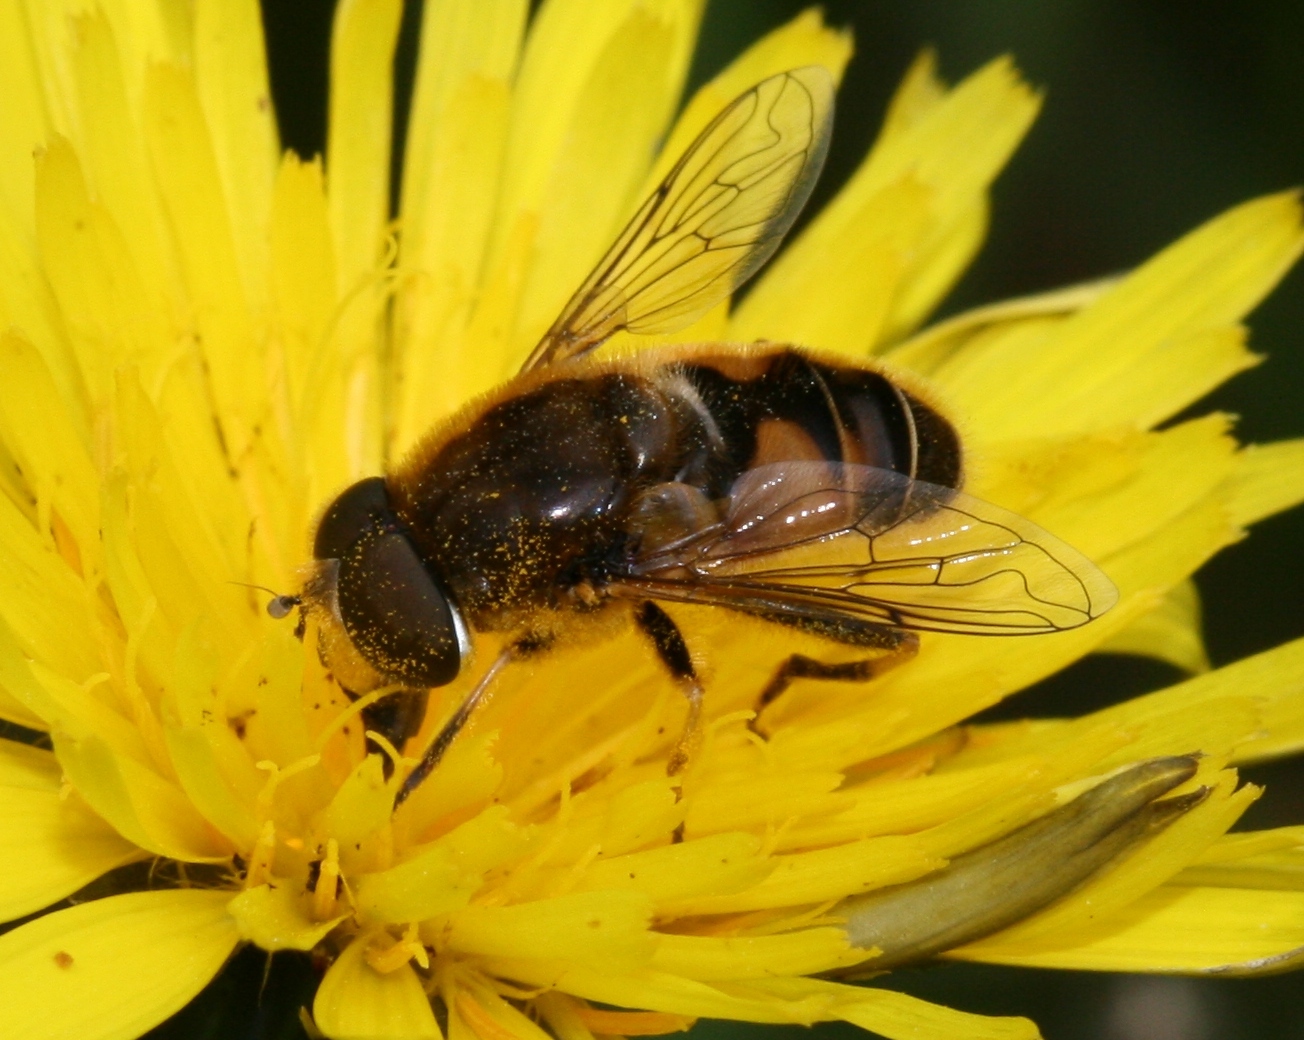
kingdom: Animalia
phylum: Arthropoda
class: Insecta
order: Diptera
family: Syrphidae
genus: Eristalis
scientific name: Eristalis nemorum
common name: Orange-spined drone fly
